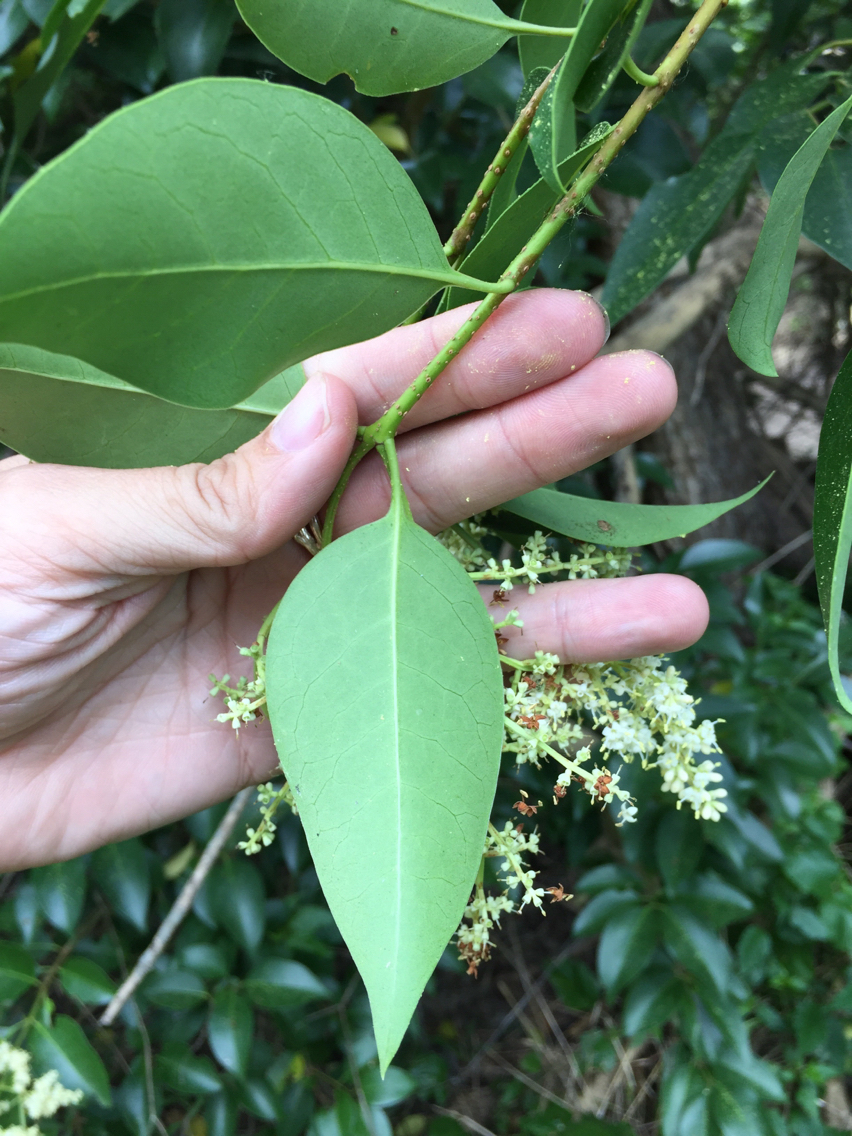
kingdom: Plantae
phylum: Tracheophyta
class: Magnoliopsida
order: Lamiales
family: Oleaceae
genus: Ligustrum
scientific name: Ligustrum lucidum
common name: Glossy privet
